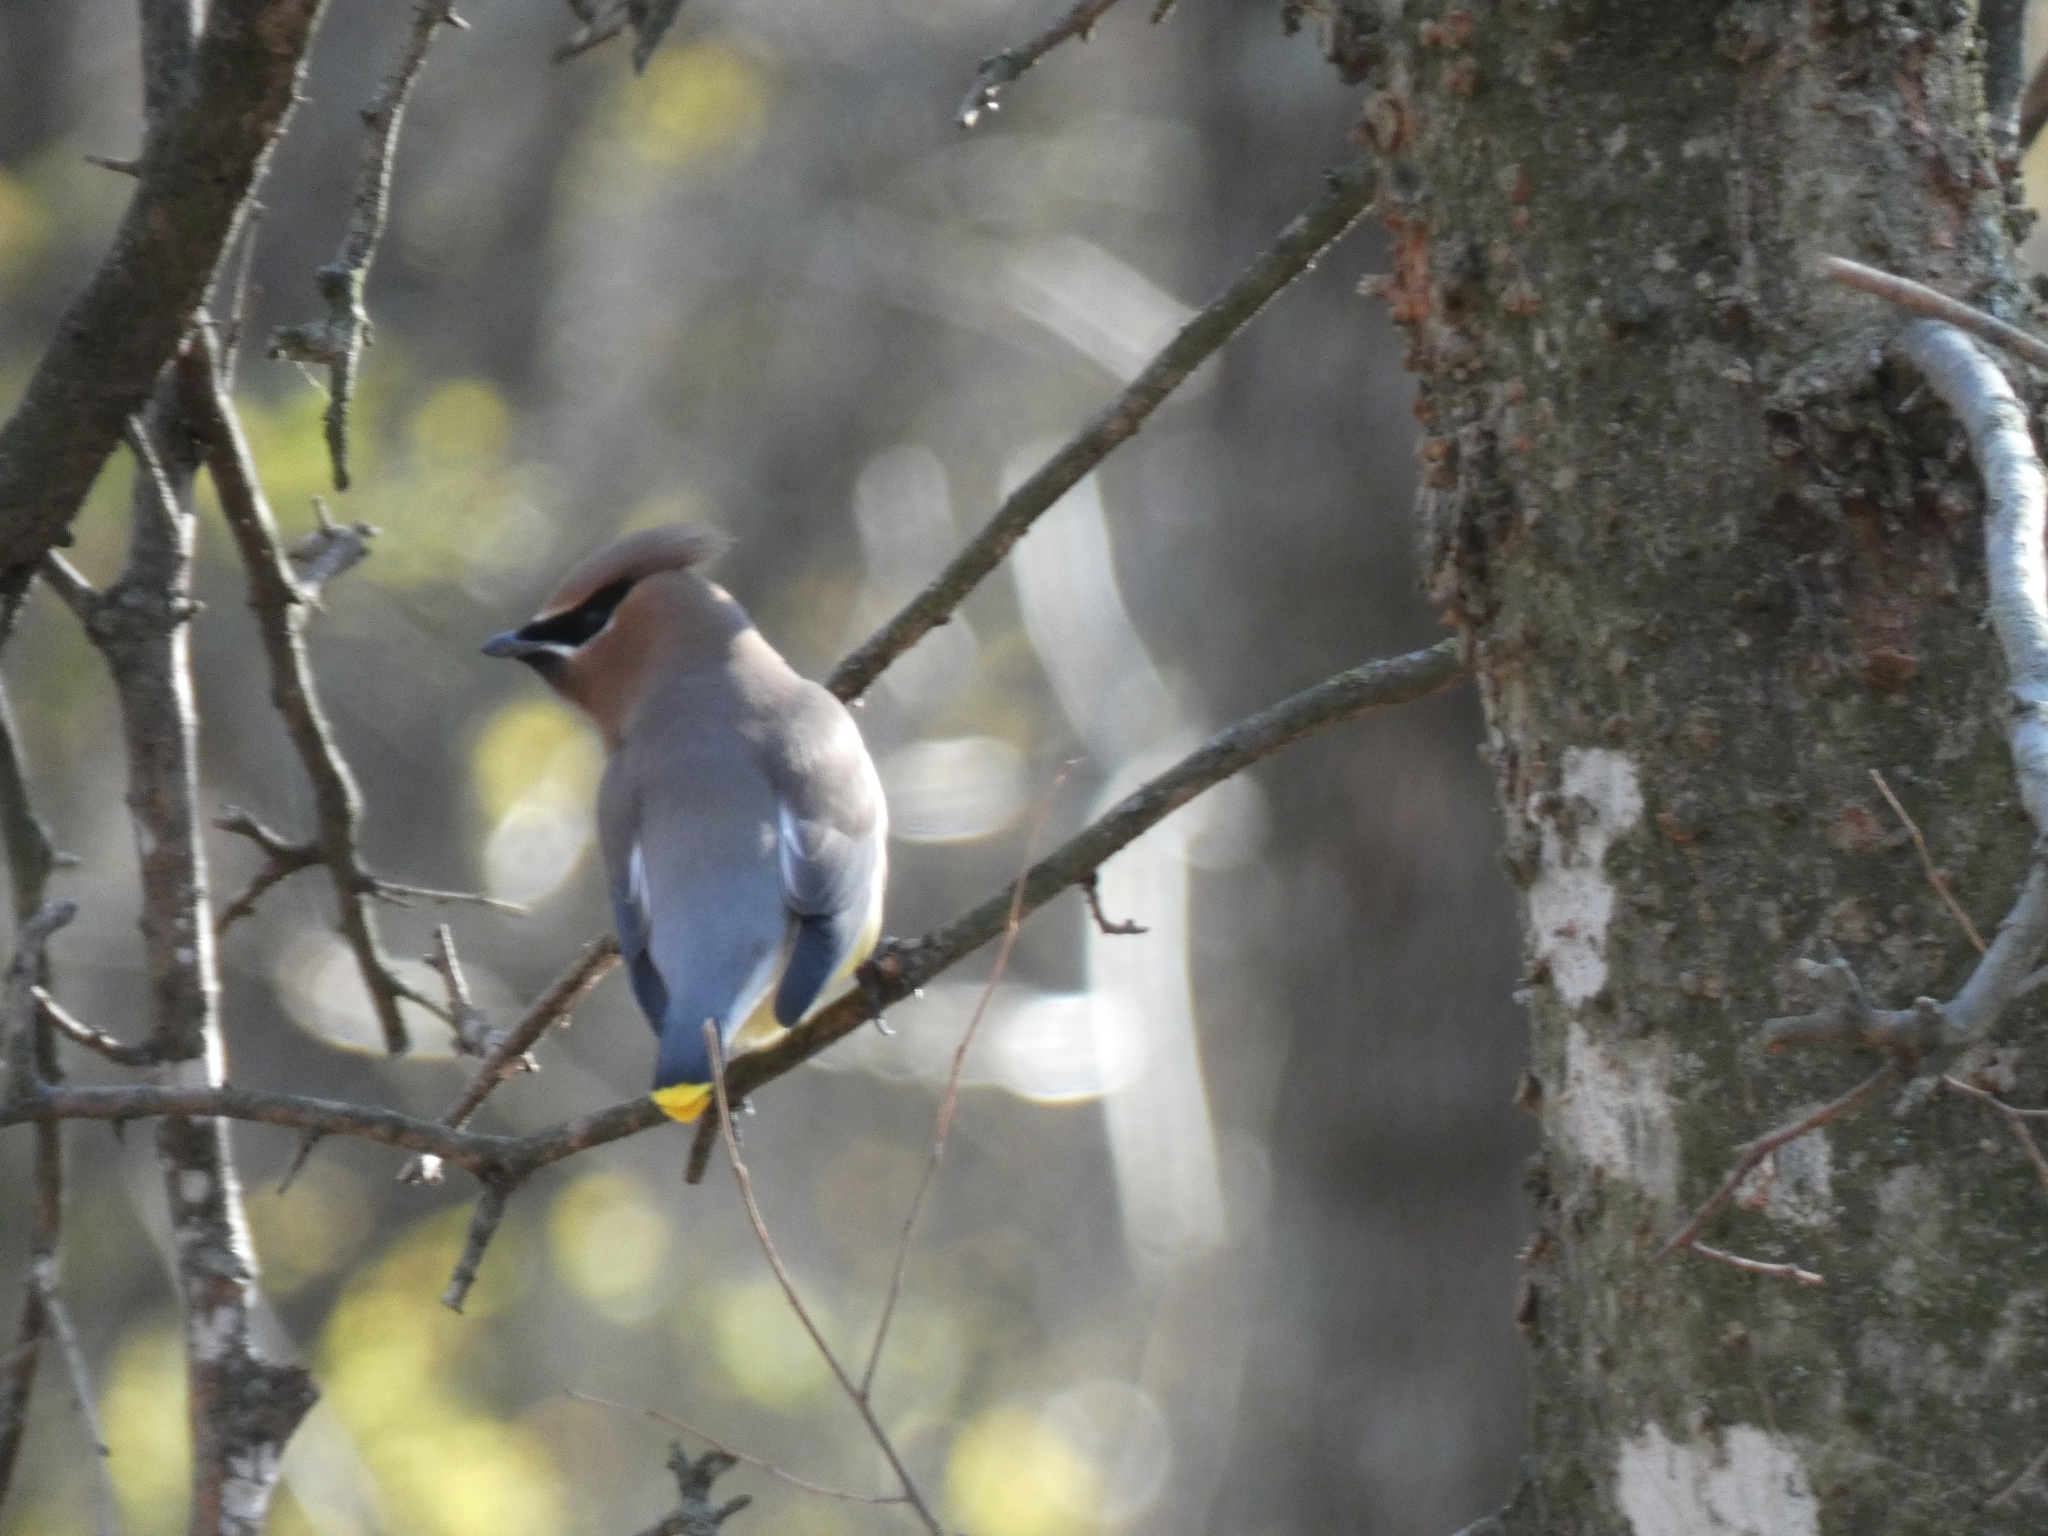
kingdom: Animalia
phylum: Chordata
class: Aves
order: Passeriformes
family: Bombycillidae
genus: Bombycilla
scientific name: Bombycilla cedrorum
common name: Cedar waxwing
